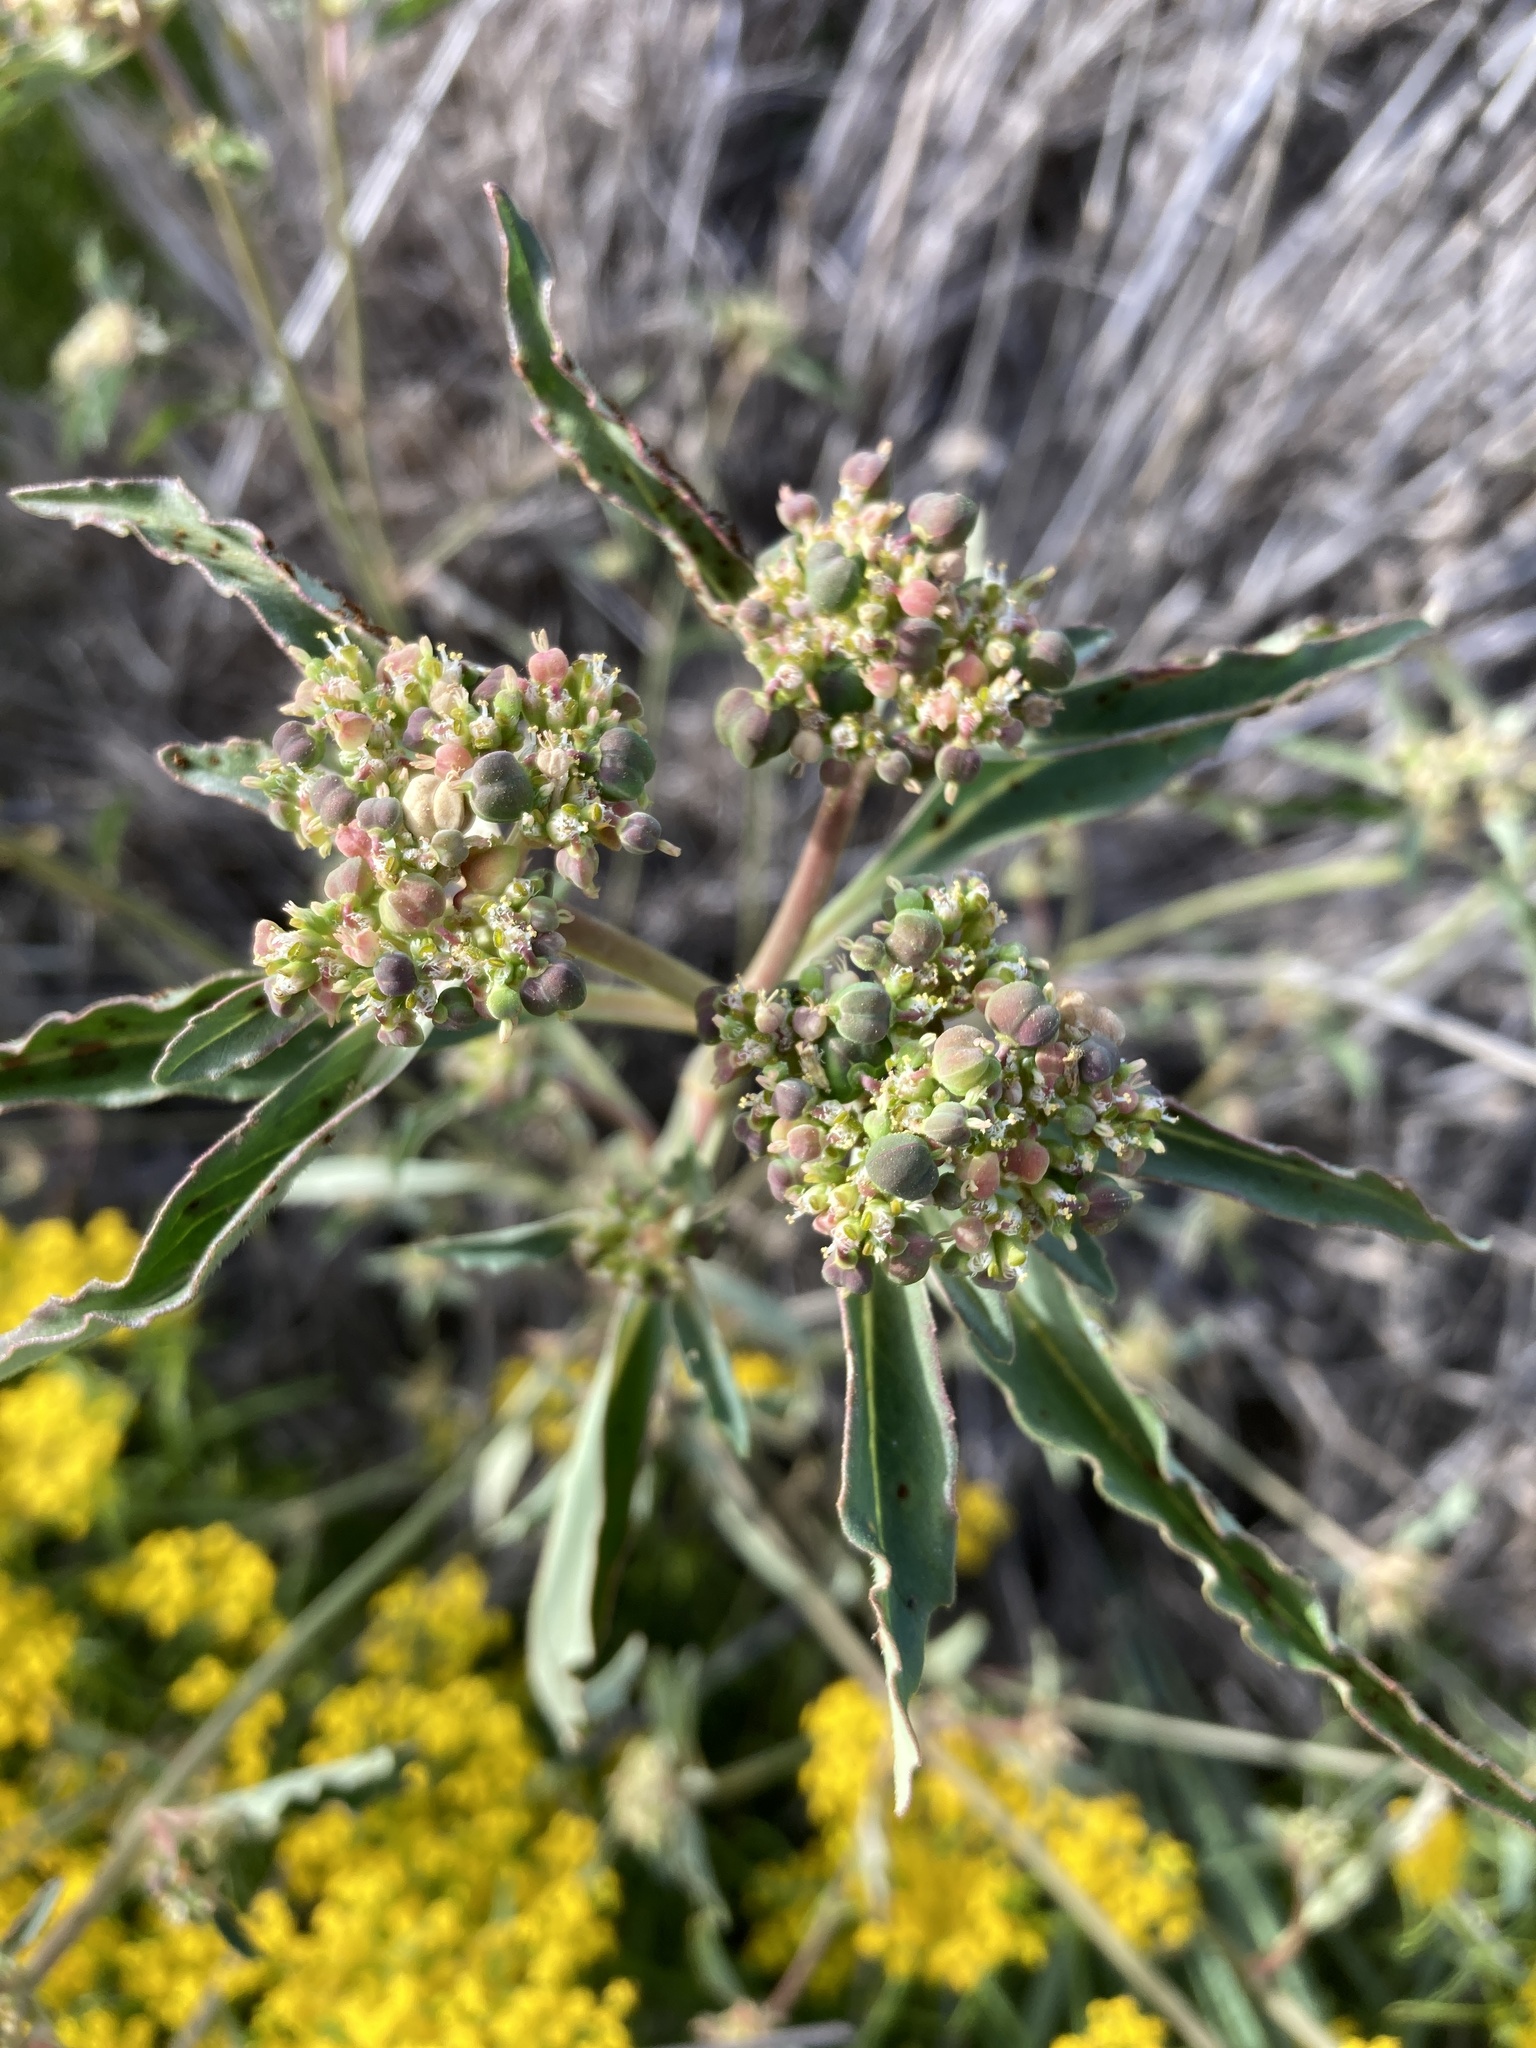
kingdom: Plantae
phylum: Tracheophyta
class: Magnoliopsida
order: Malpighiales
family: Euphorbiaceae
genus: Euphorbia
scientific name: Euphorbia davidii
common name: David's spurge
